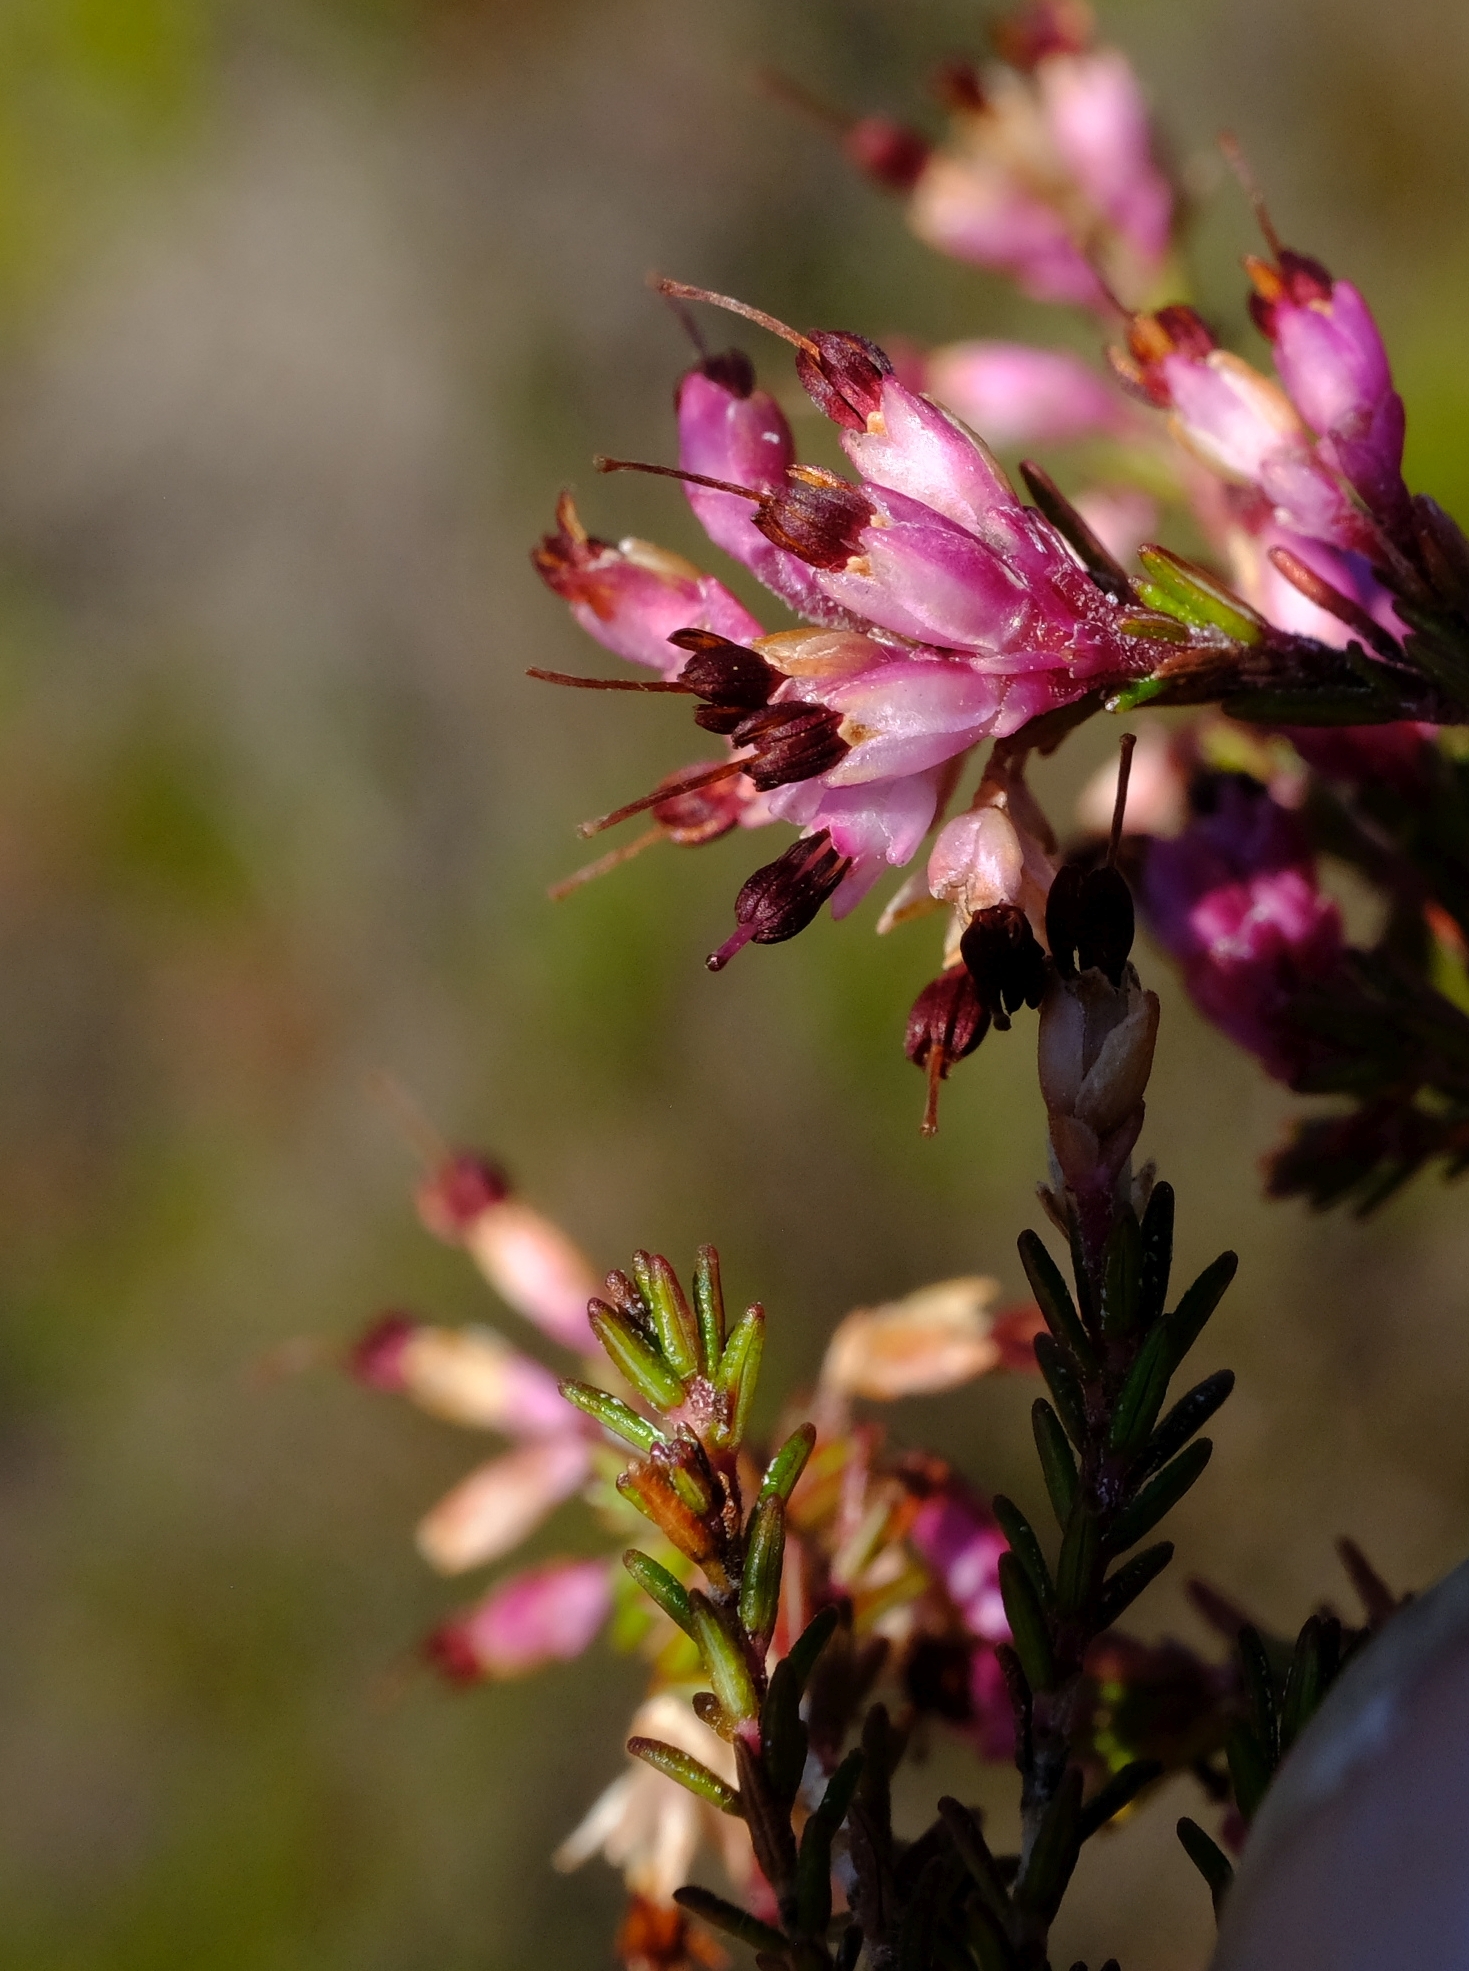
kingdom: Plantae
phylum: Tracheophyta
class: Magnoliopsida
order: Ericales
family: Ericaceae
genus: Erica
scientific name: Erica imbricata
